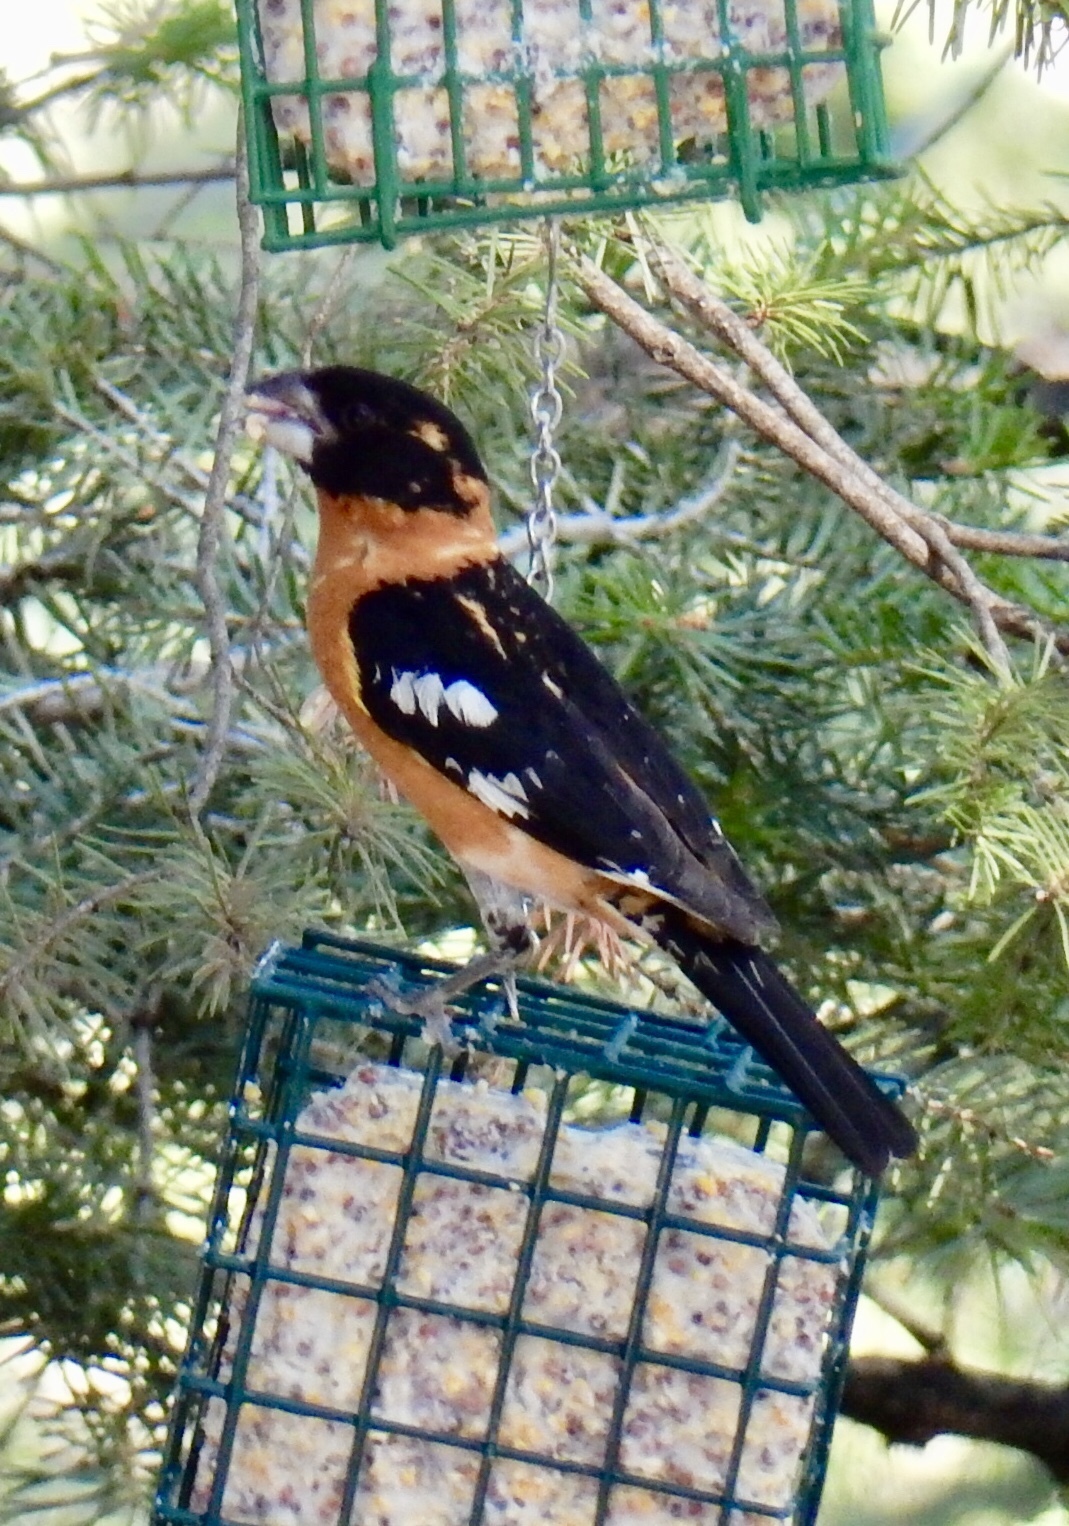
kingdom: Animalia
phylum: Chordata
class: Aves
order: Passeriformes
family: Cardinalidae
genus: Pheucticus
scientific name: Pheucticus melanocephalus
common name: Black-headed grosbeak
